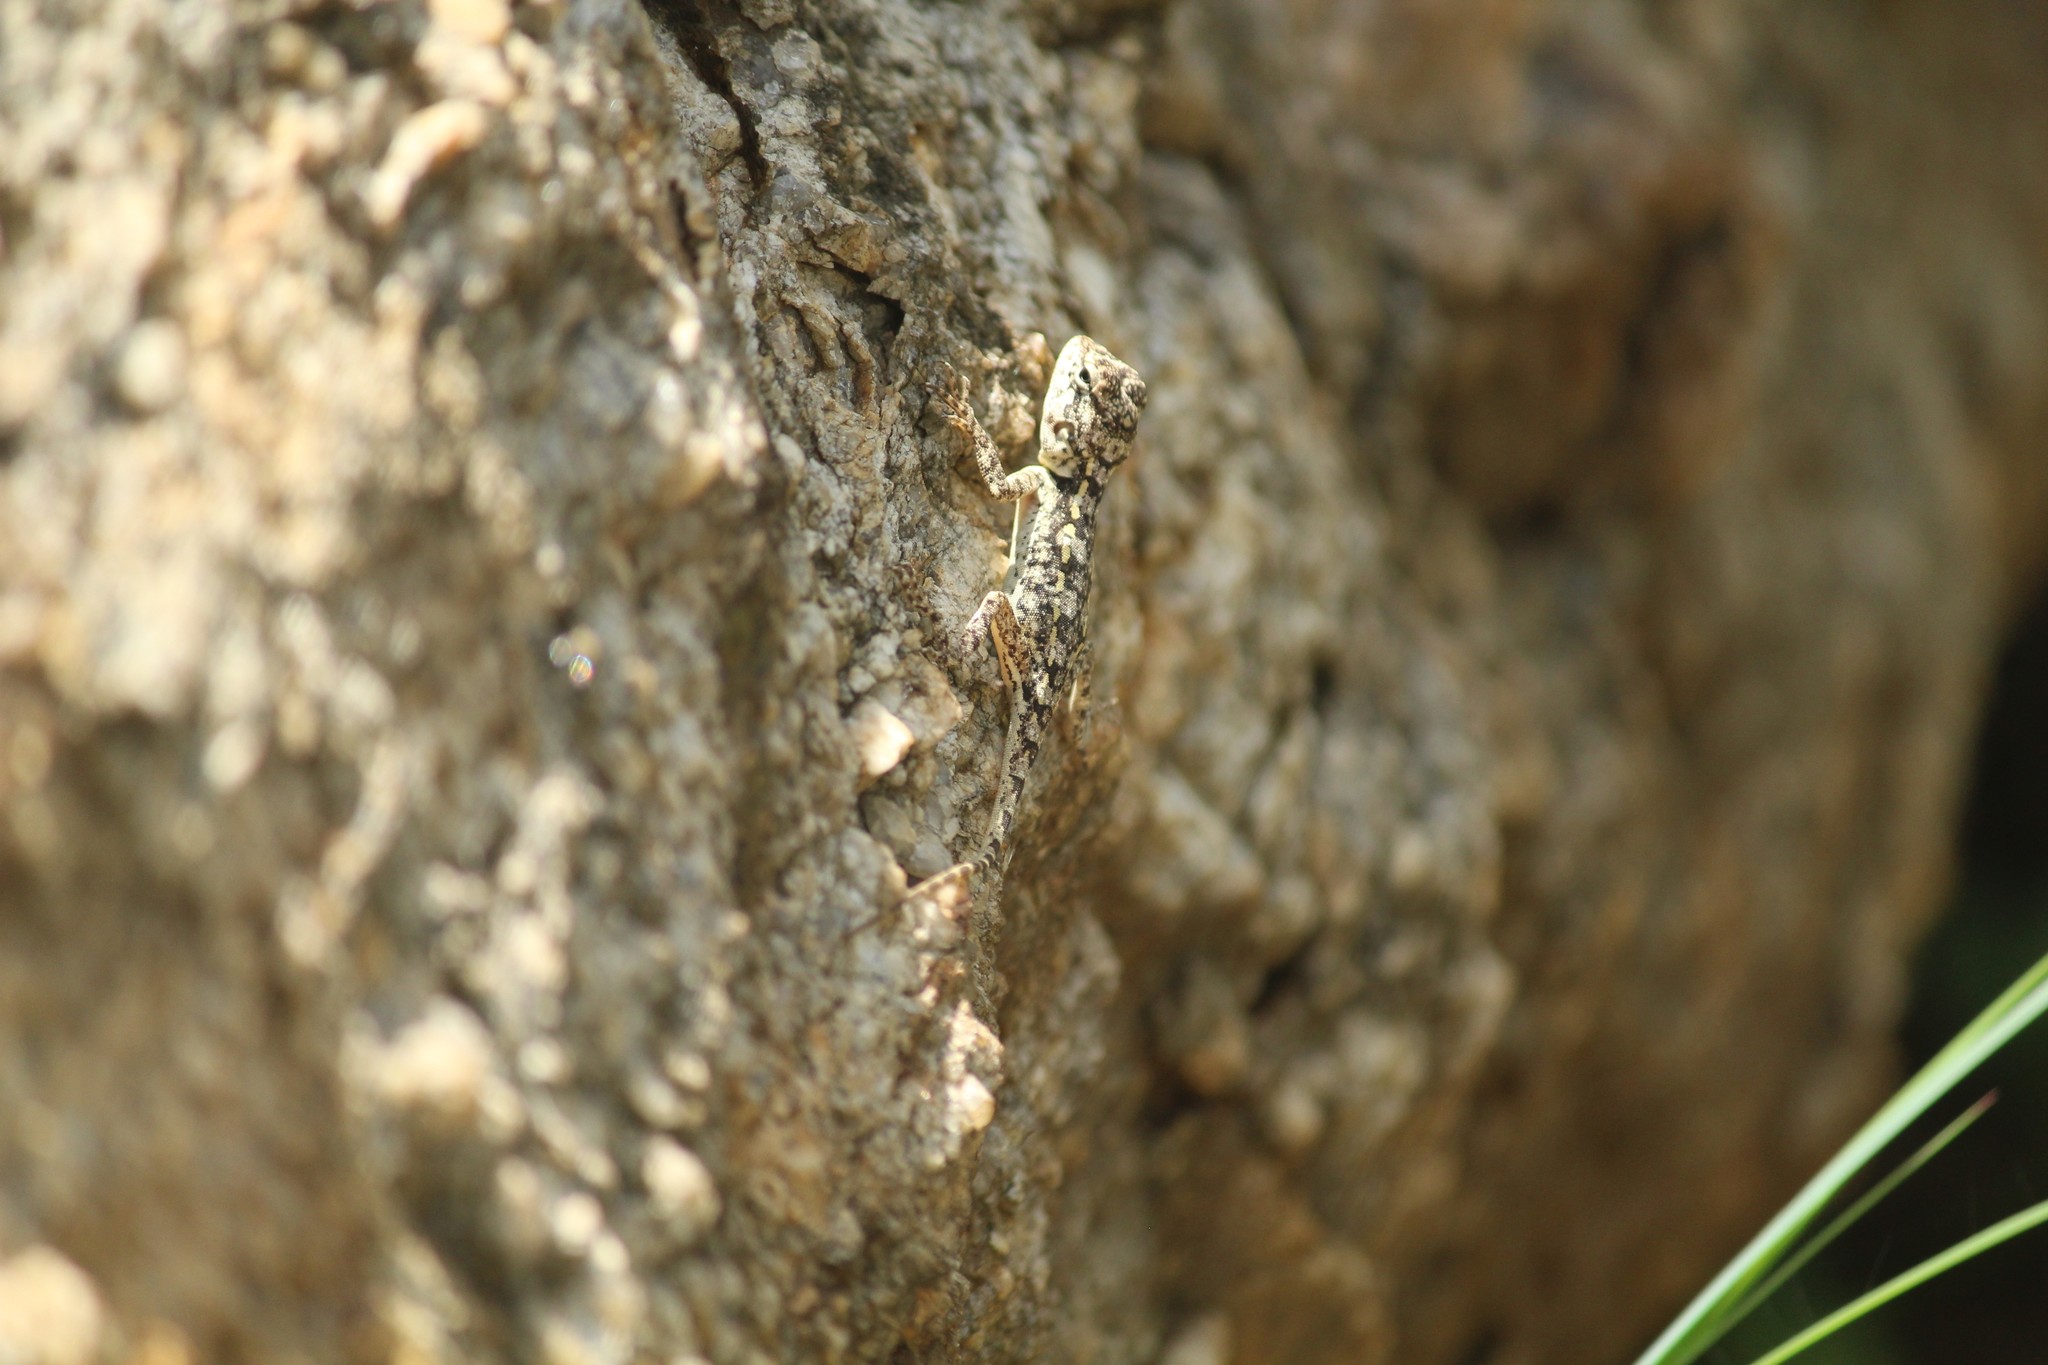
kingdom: Animalia
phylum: Chordata
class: Squamata
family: Agamidae
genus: Psammophilus
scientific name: Psammophilus dorsalis
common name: South indian rock agama
